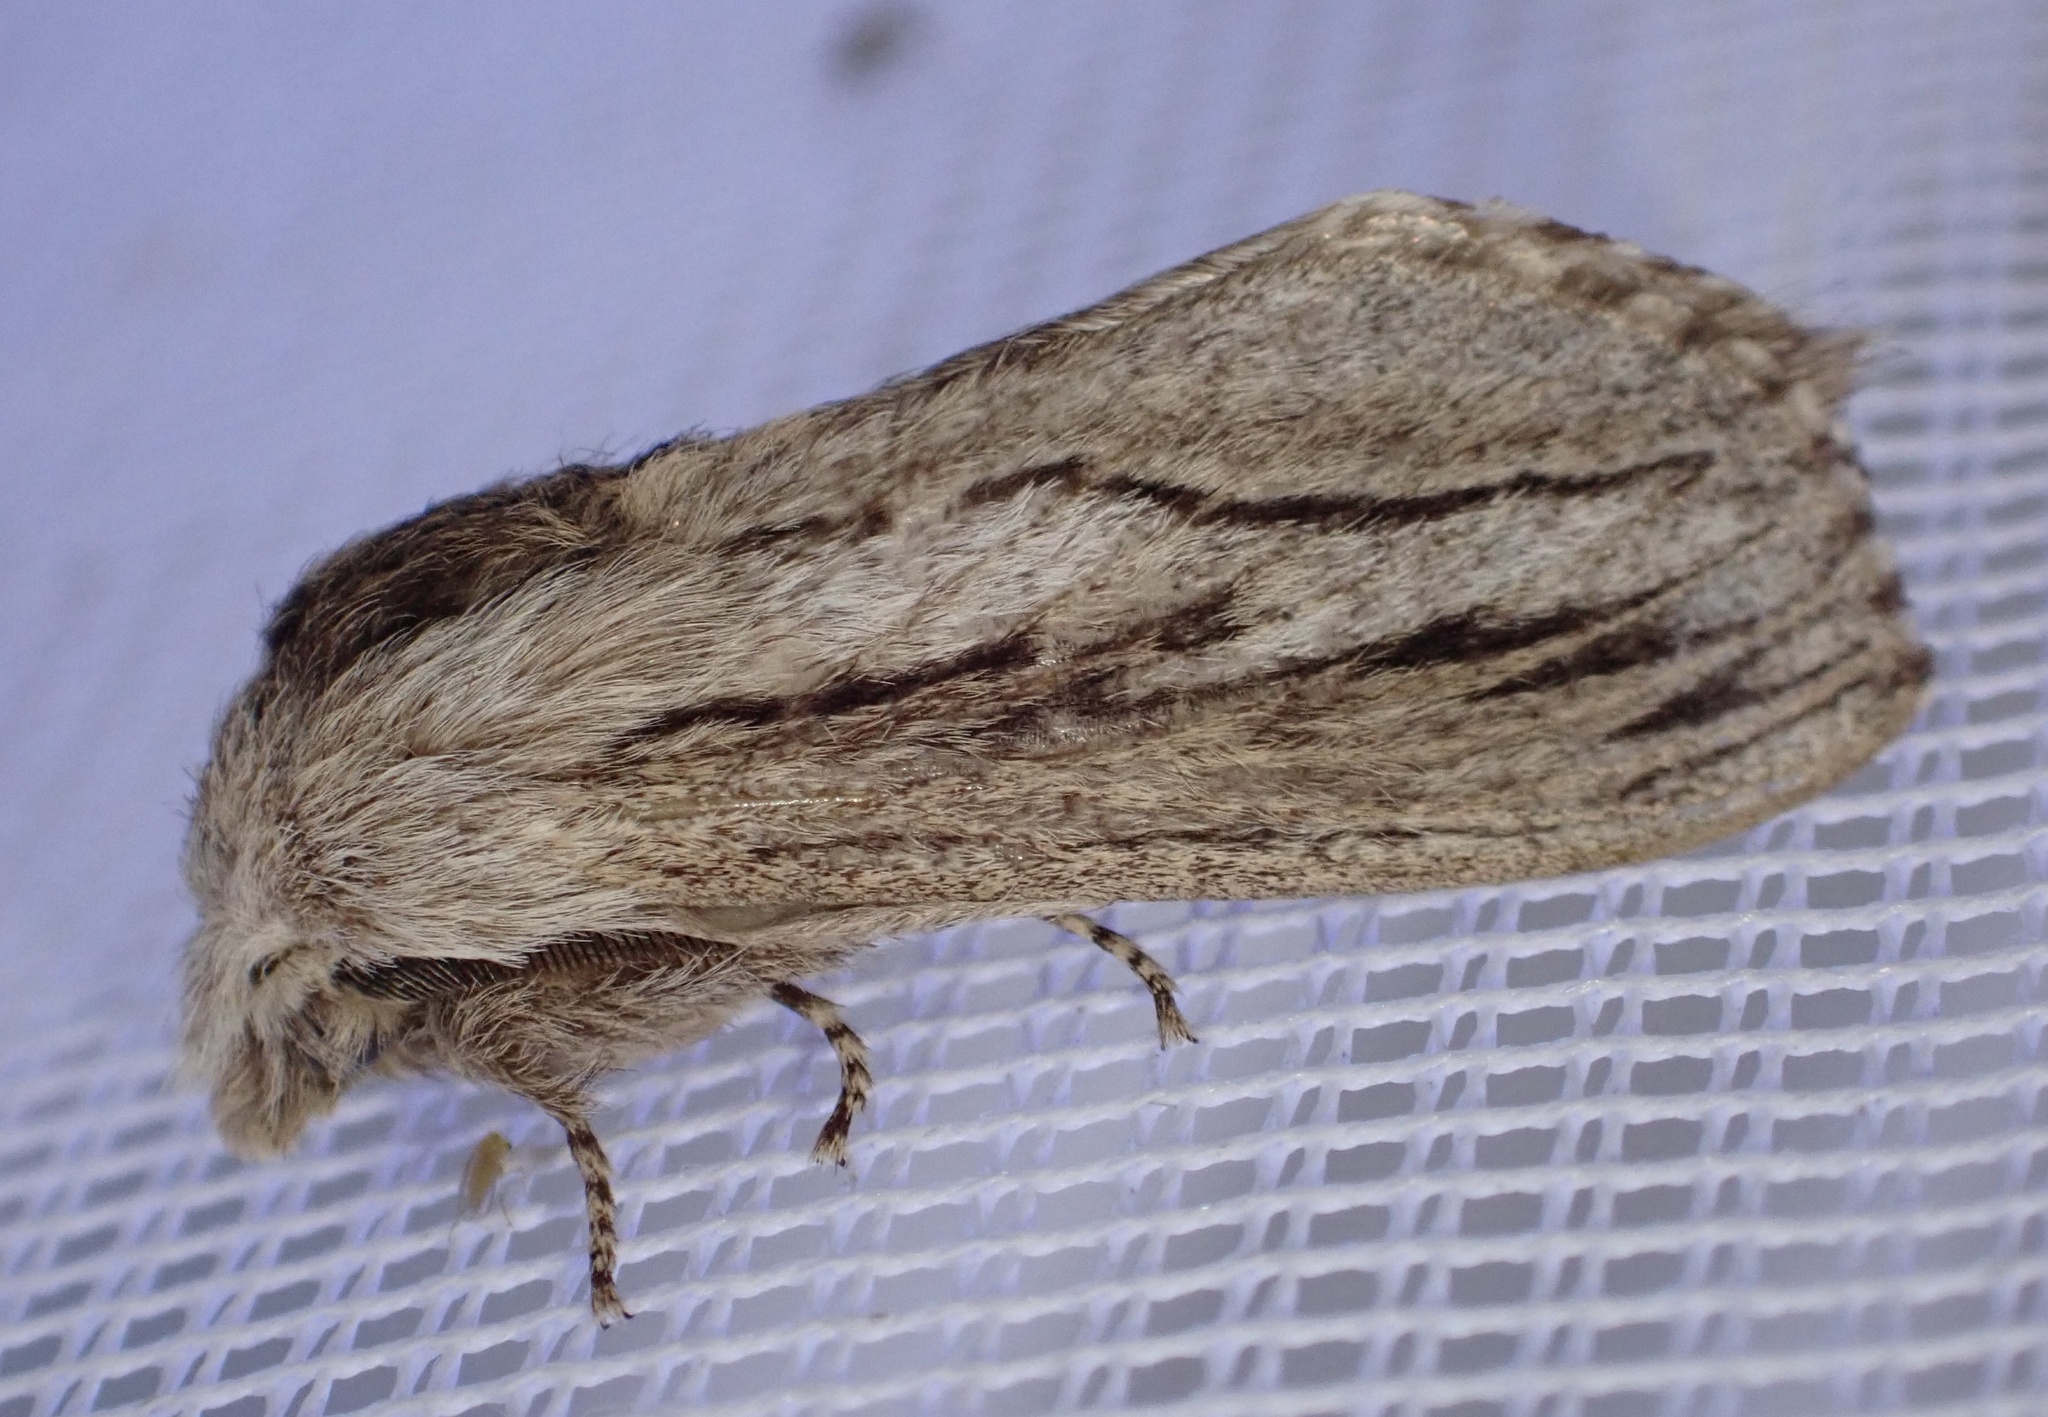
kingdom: Animalia
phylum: Arthropoda
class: Insecta
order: Lepidoptera
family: Lasiocampidae
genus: Gufria
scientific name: Gufria limosa
